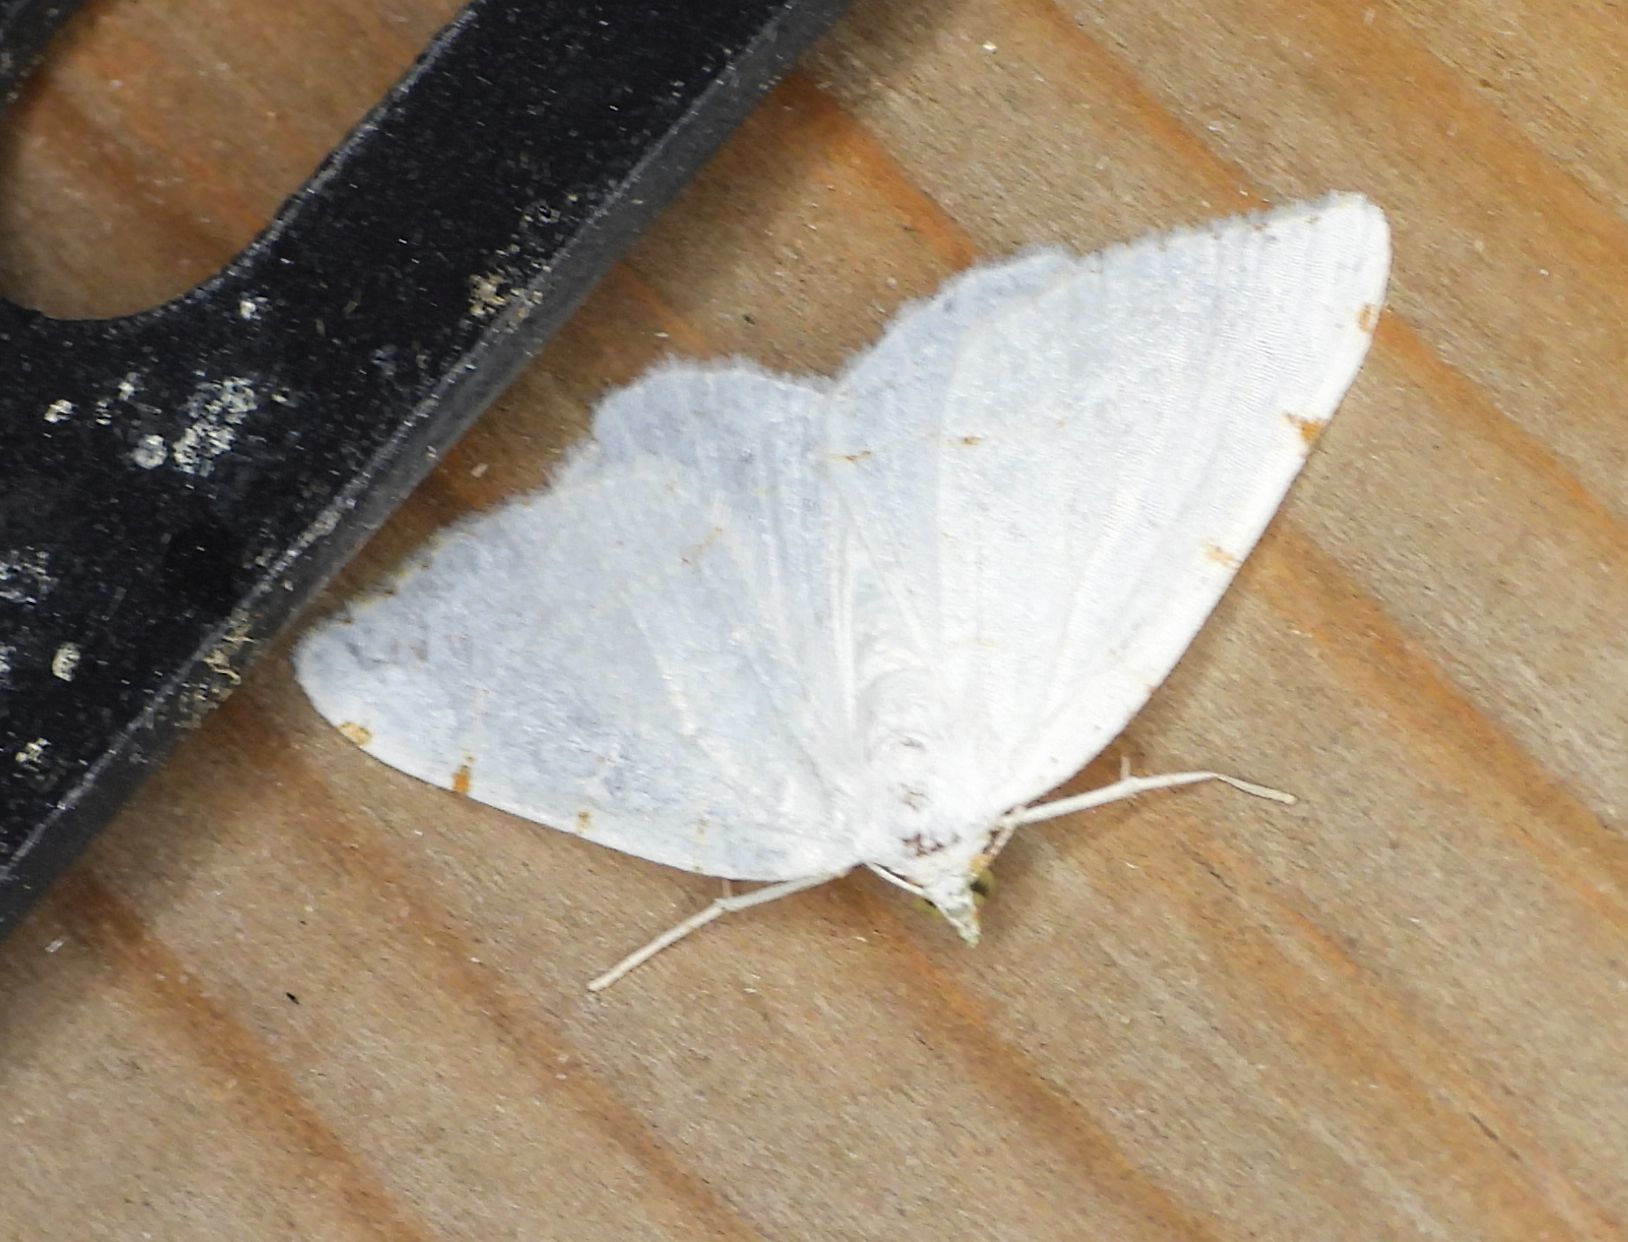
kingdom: Animalia
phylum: Arthropoda
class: Insecta
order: Lepidoptera
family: Geometridae
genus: Macaria
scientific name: Macaria pustularia
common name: Lesser maple spanworm moth
